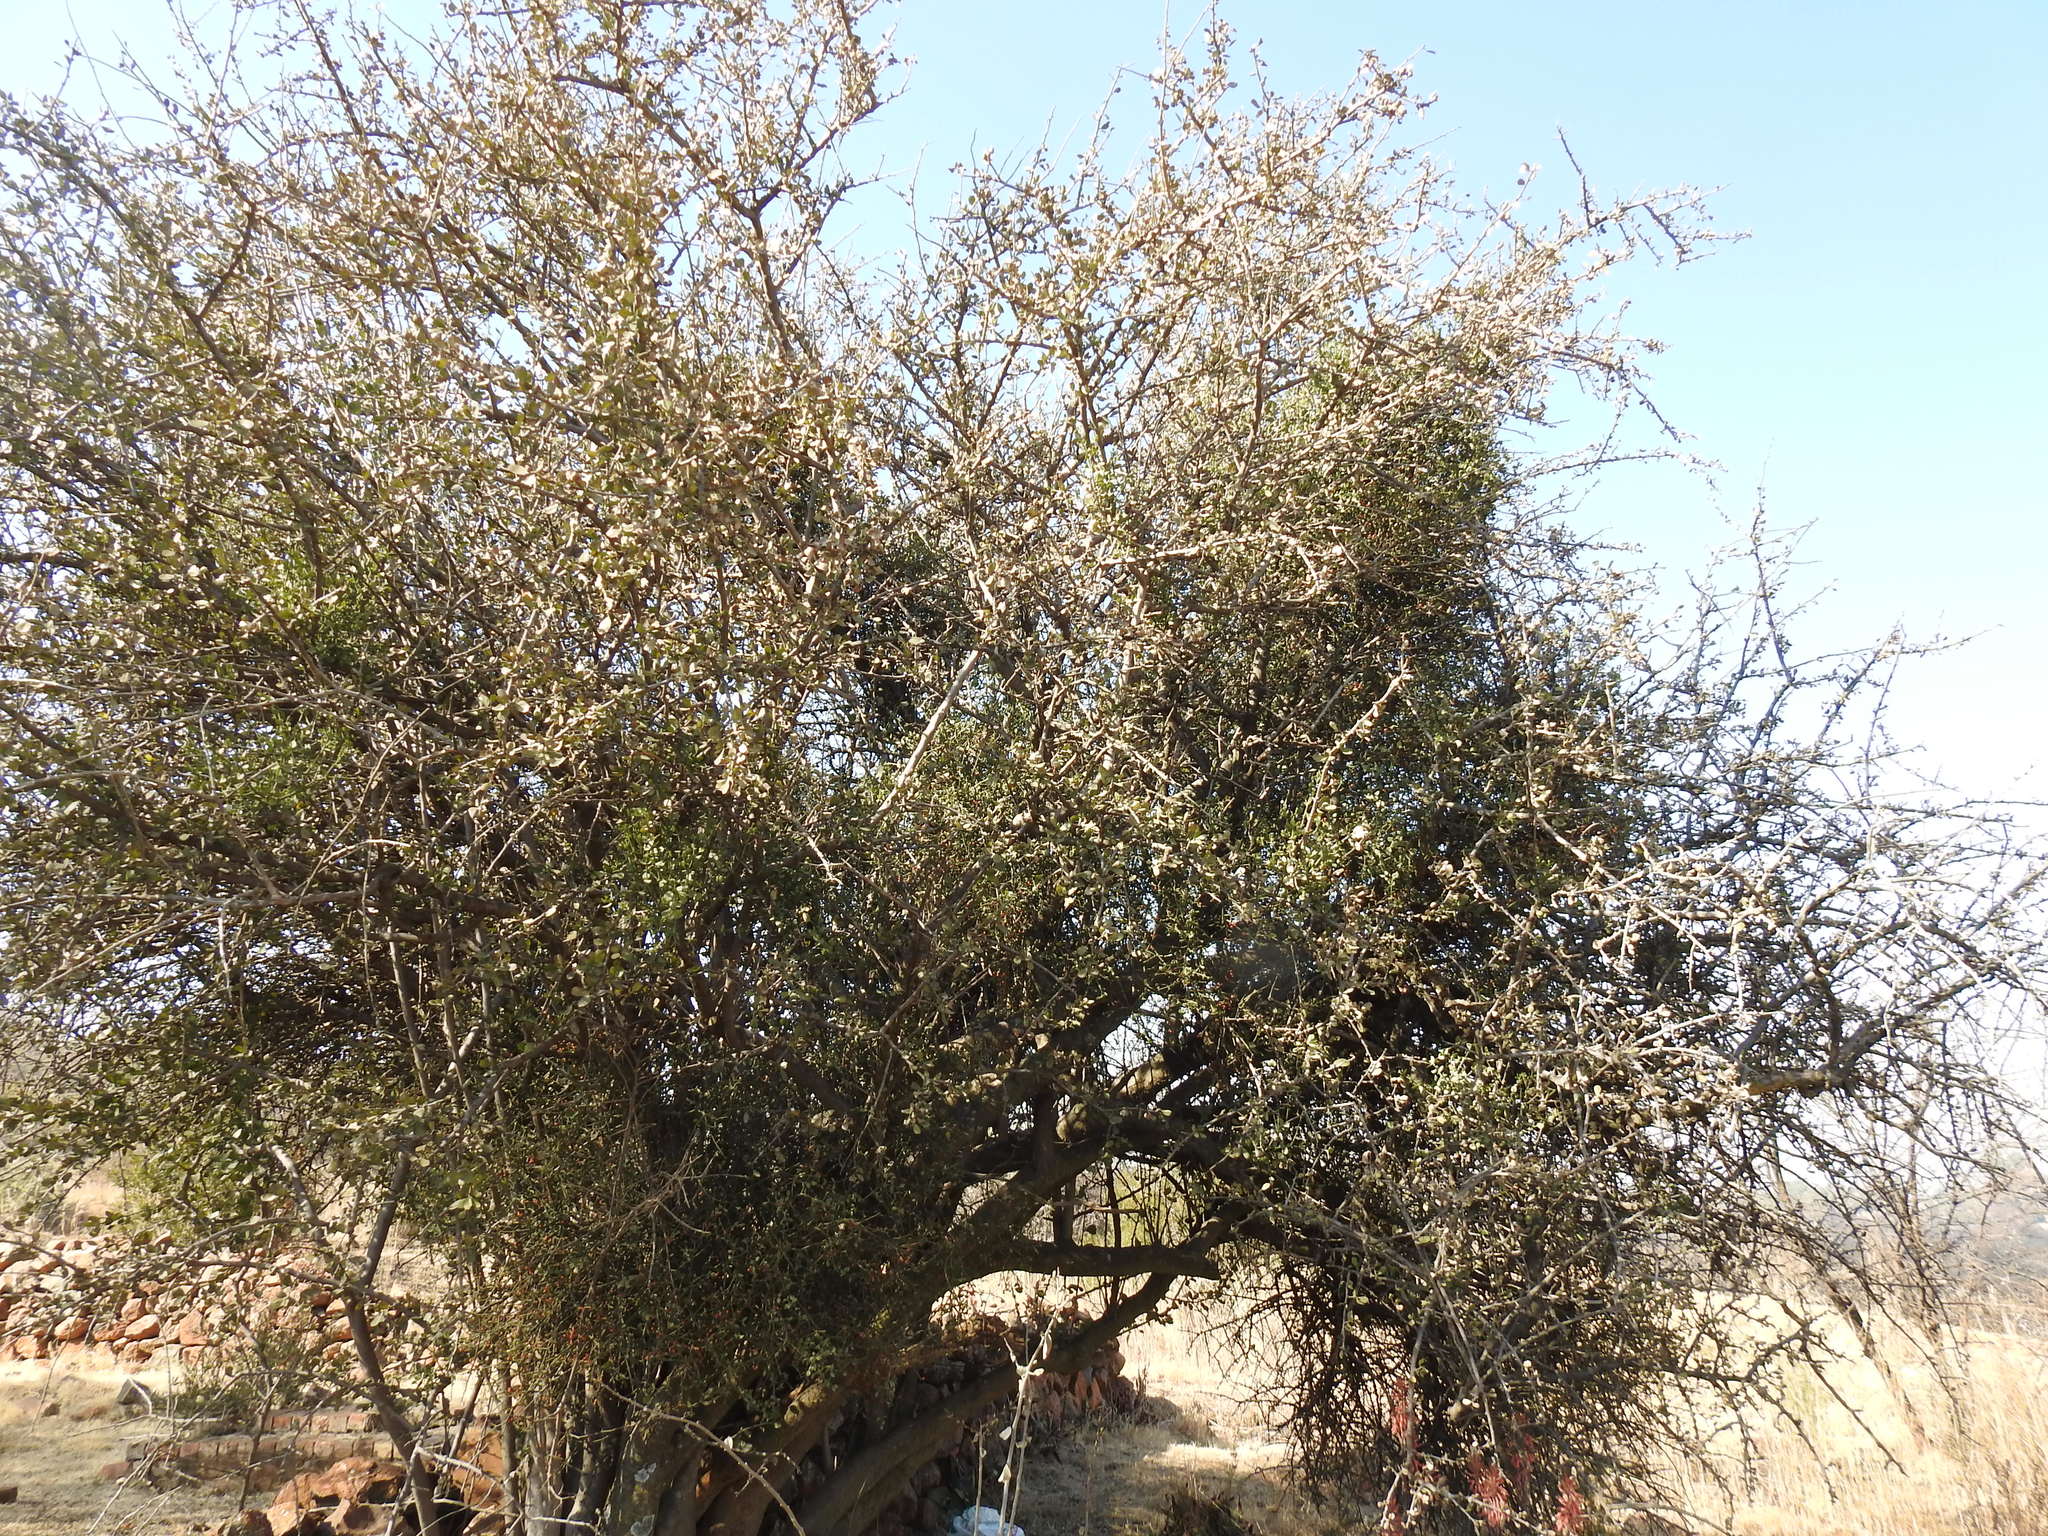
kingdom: Plantae
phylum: Tracheophyta
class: Magnoliopsida
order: Boraginales
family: Ehretiaceae
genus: Ehretia
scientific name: Ehretia rigida
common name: Cape lilac
